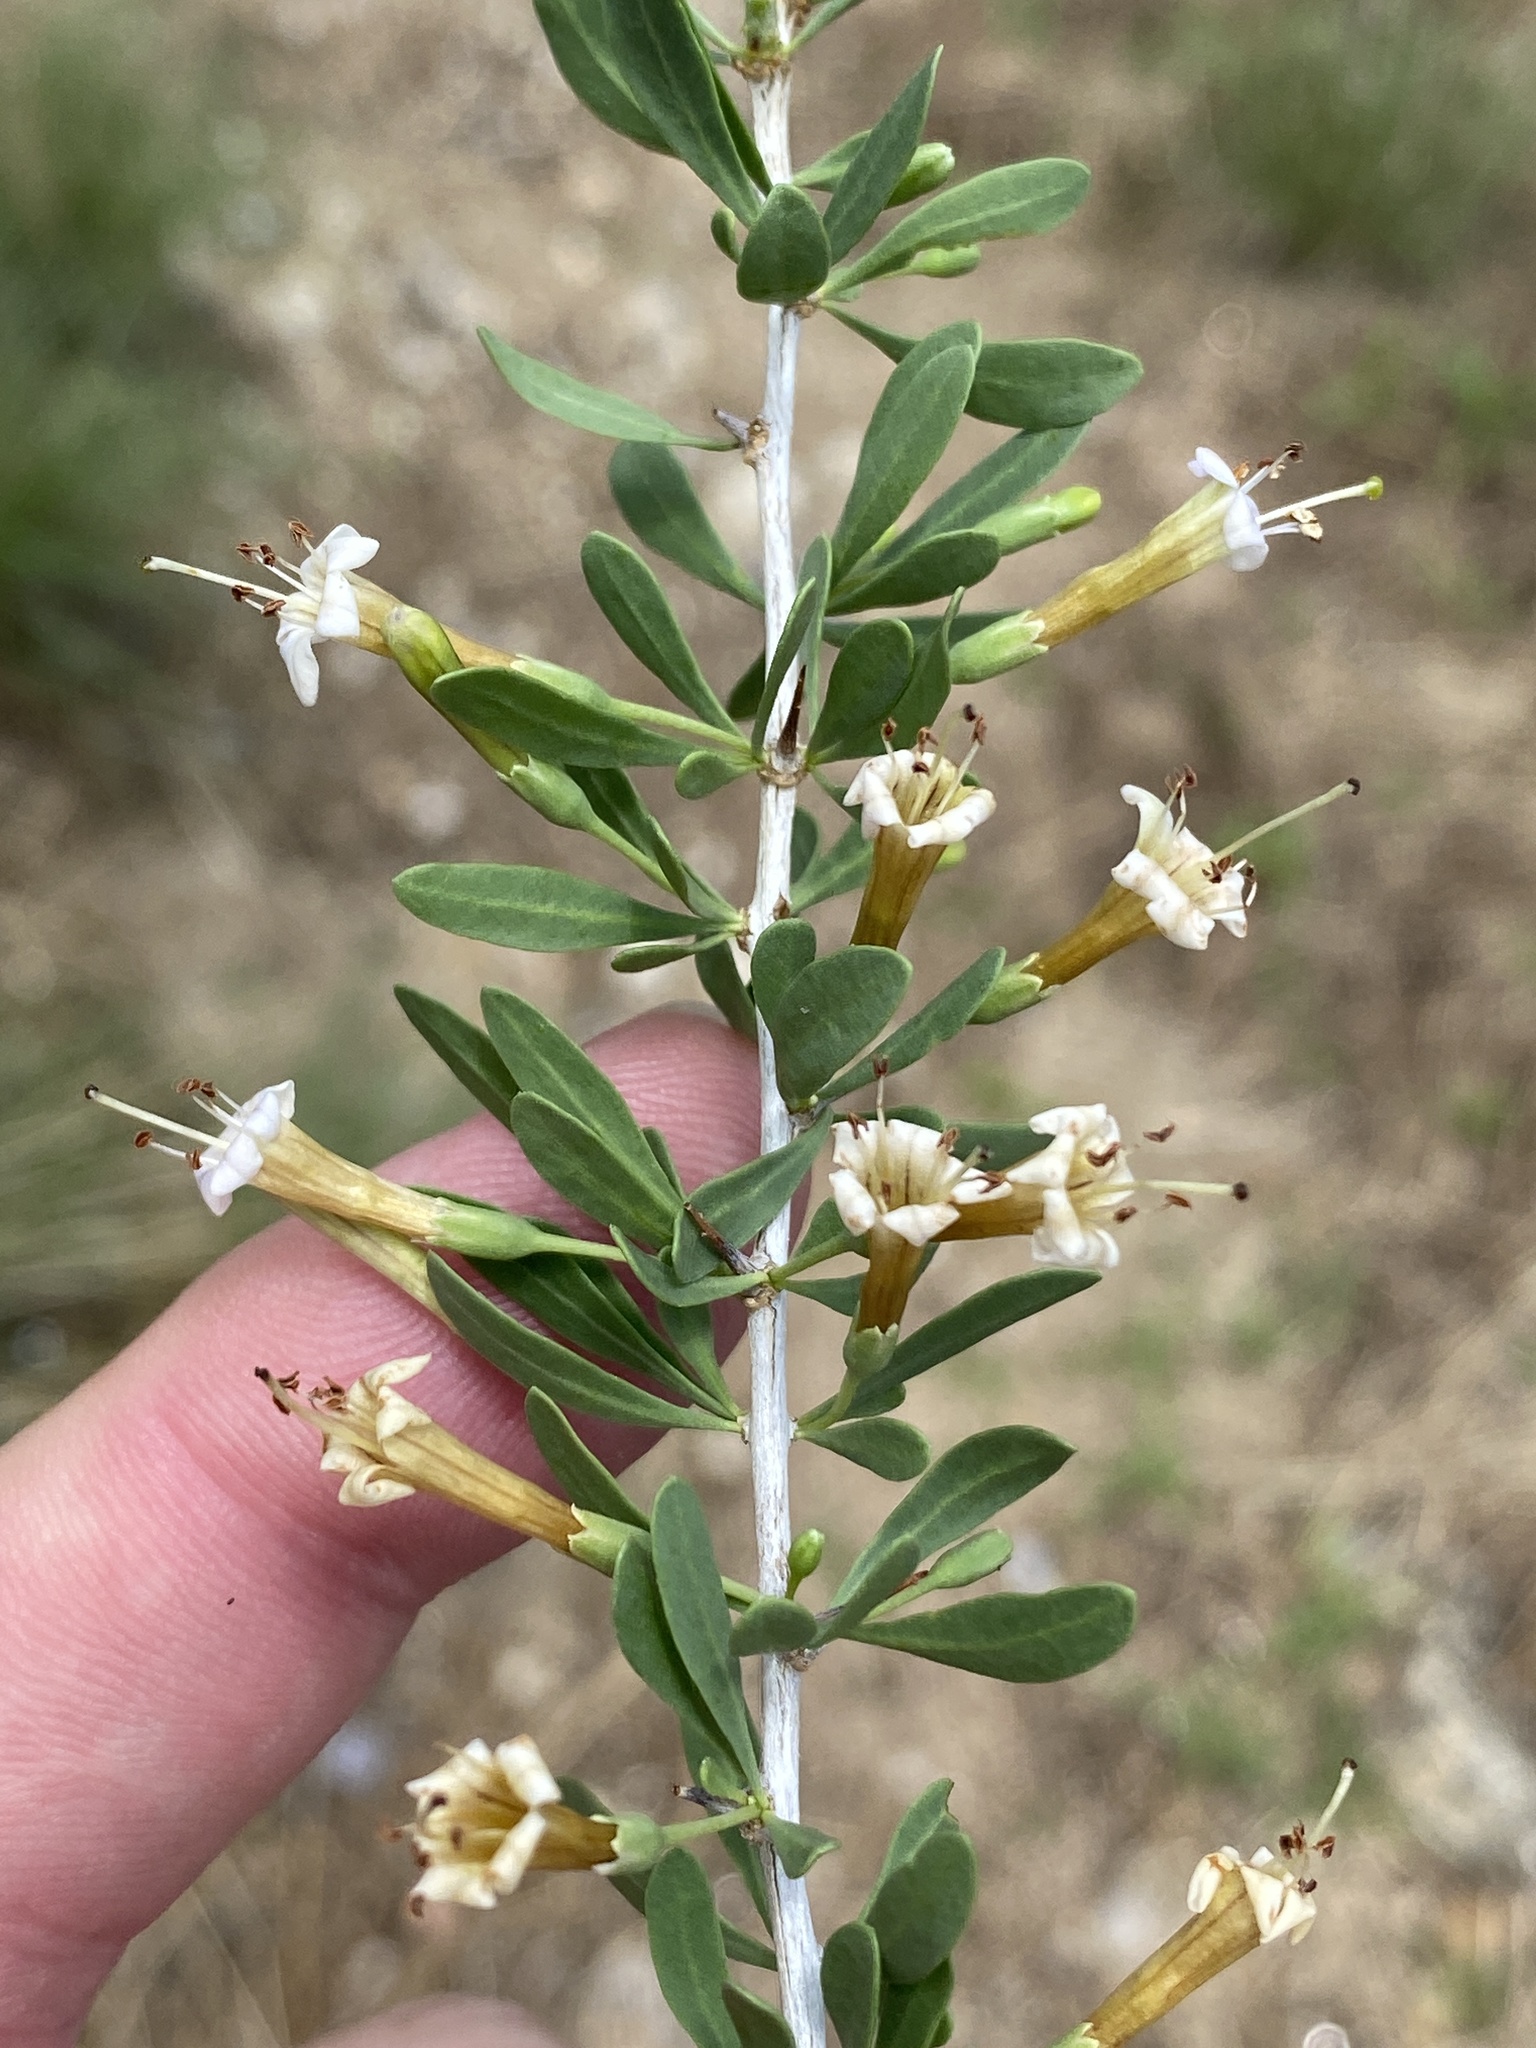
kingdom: Plantae
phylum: Tracheophyta
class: Magnoliopsida
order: Solanales
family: Solanaceae
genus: Lycium
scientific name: Lycium bosciifolium
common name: Limpopo honey-thorn
